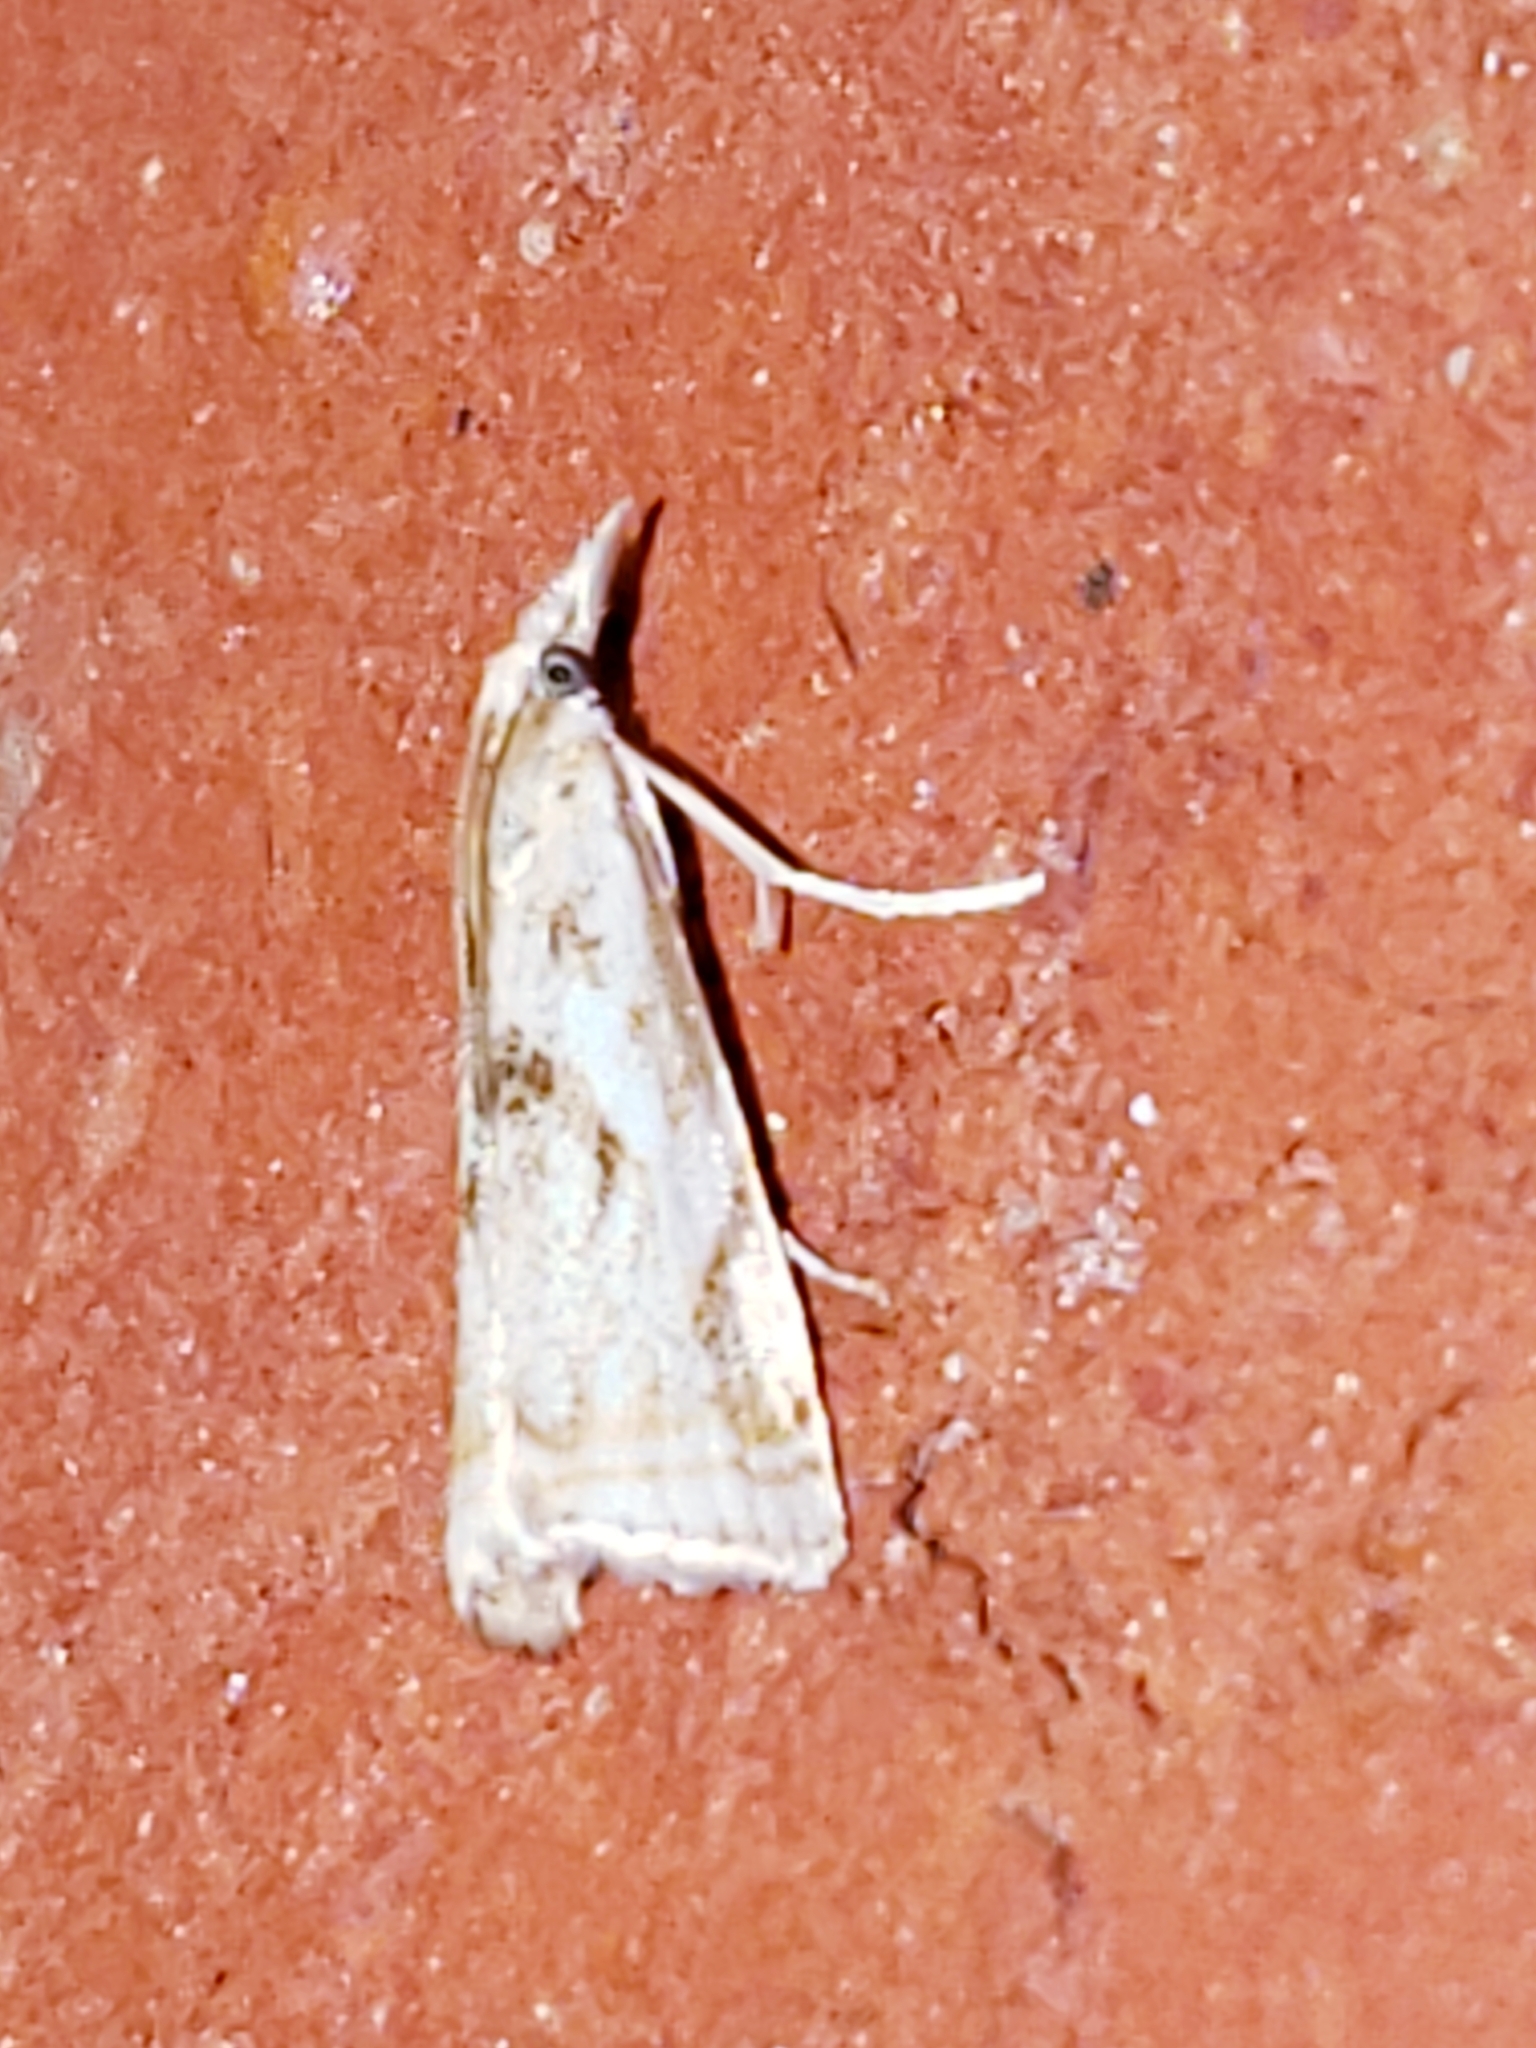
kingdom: Animalia
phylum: Arthropoda
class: Insecta
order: Lepidoptera
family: Crambidae
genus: Microcrambus
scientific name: Microcrambus elegans
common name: Elegant grass-veneer
